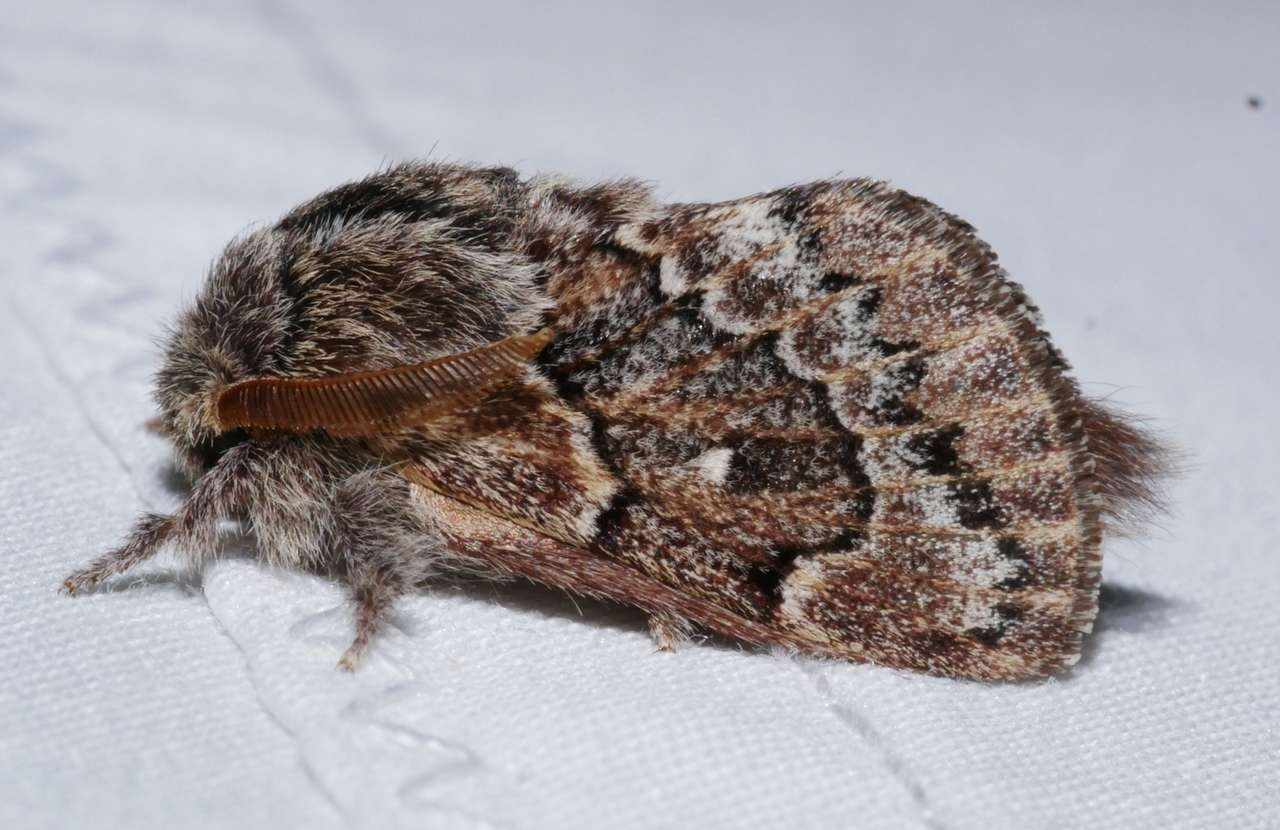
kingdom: Animalia
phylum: Arthropoda
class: Insecta
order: Lepidoptera
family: Lasiocampidae
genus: Pernattia
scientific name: Pernattia pusilla
